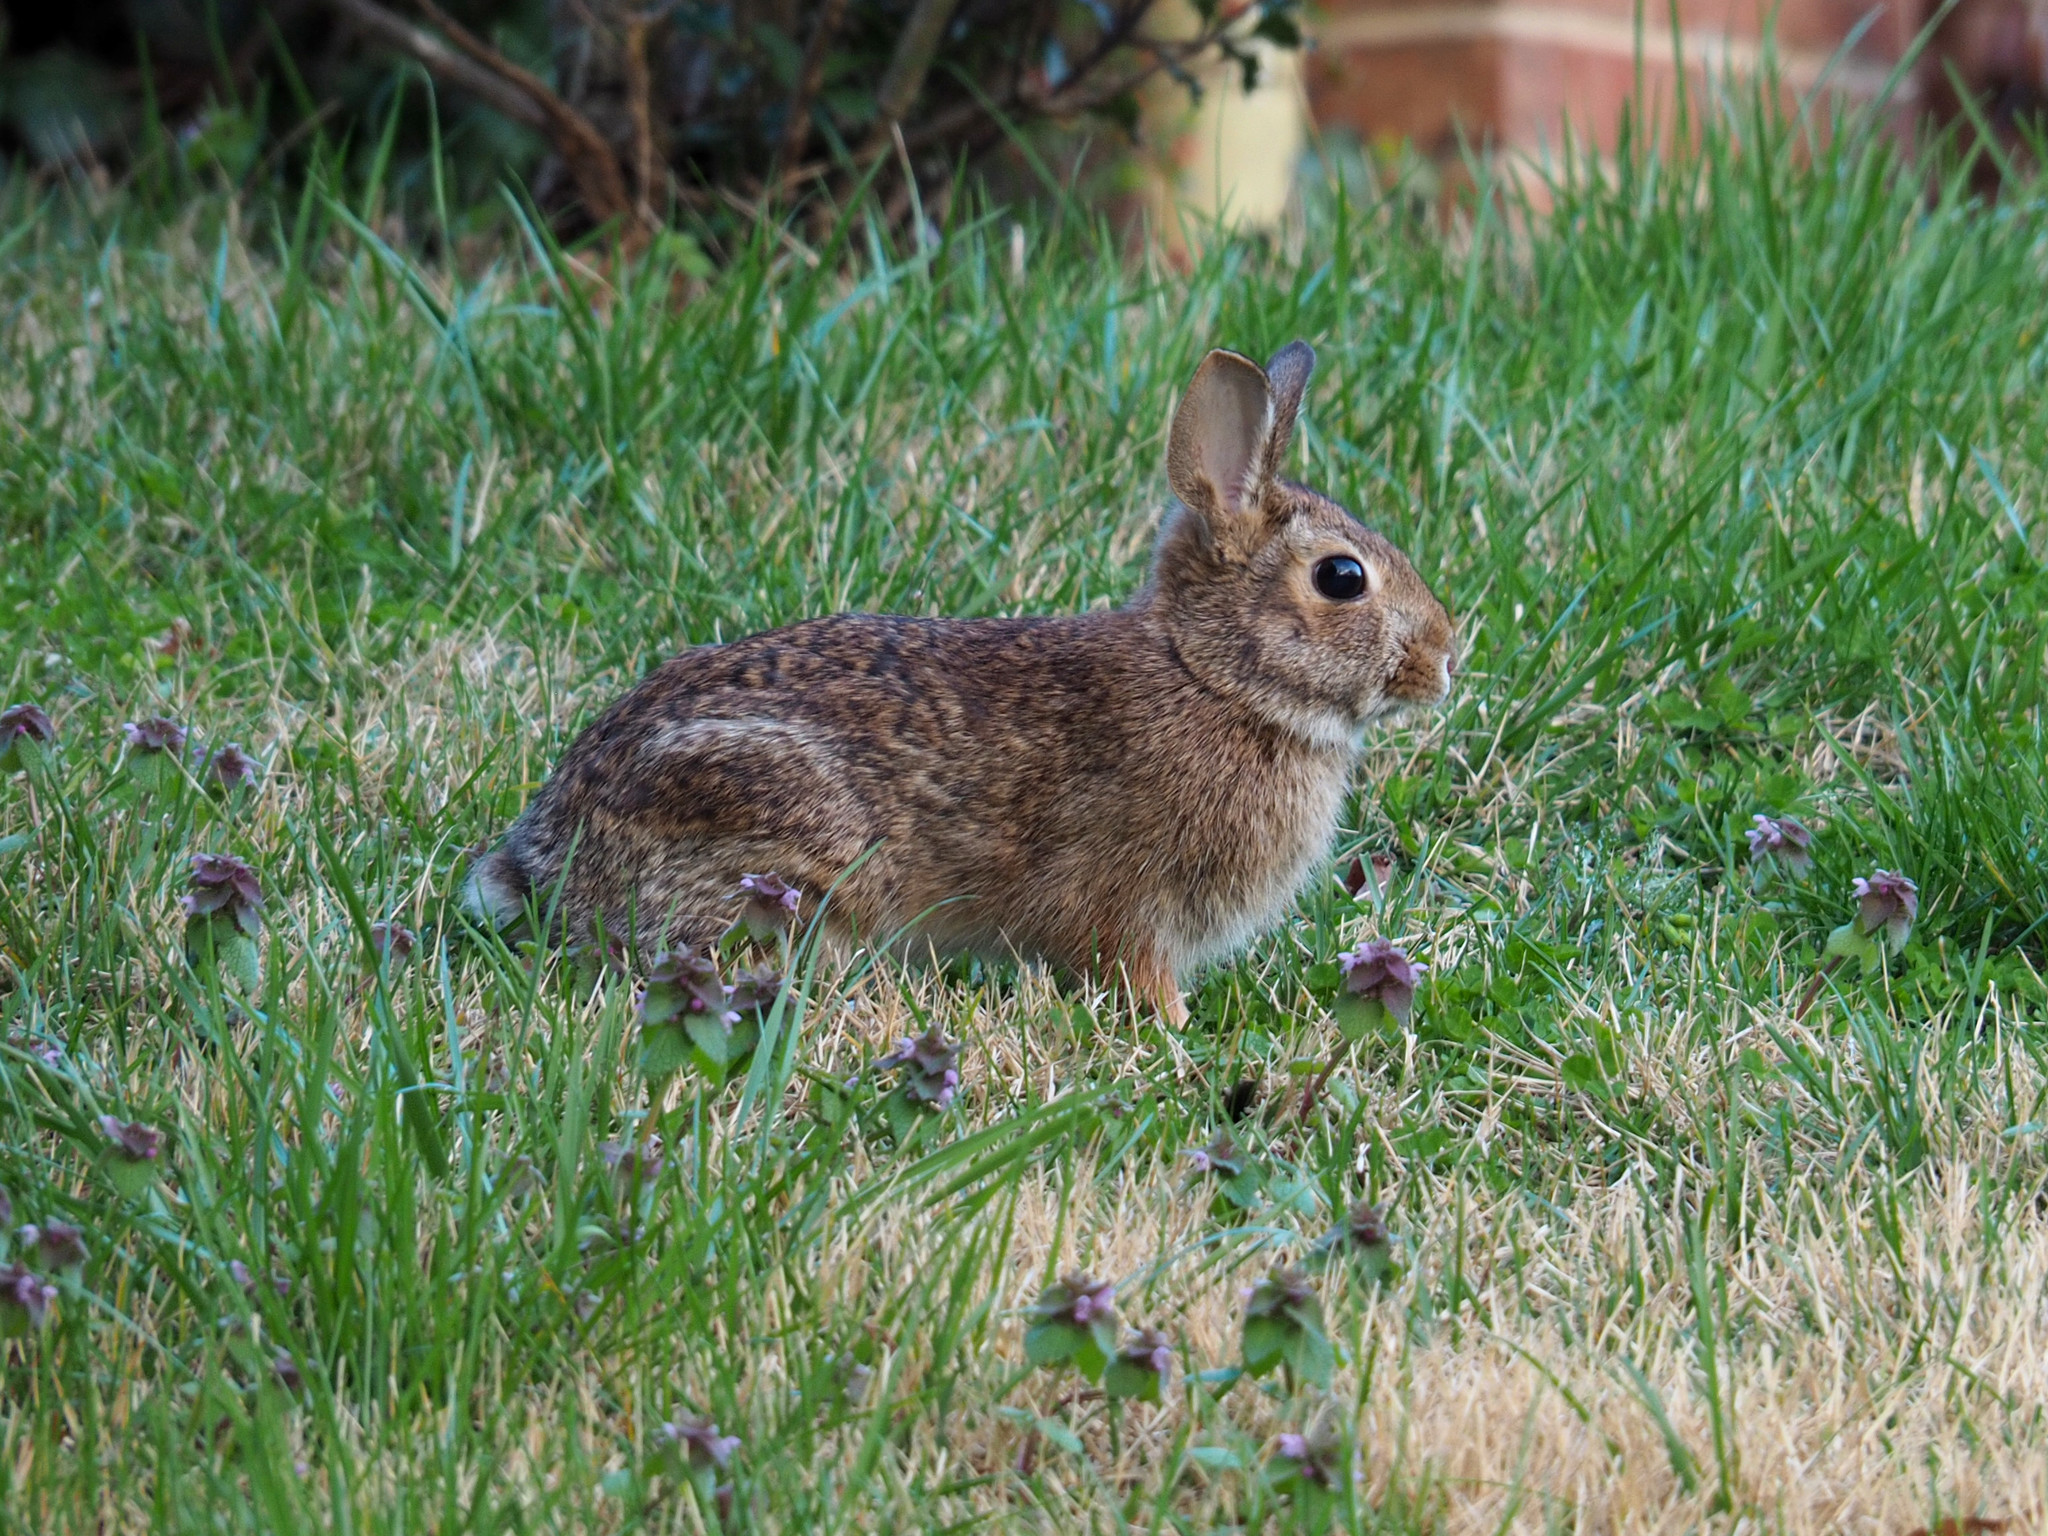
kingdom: Animalia
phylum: Chordata
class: Mammalia
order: Lagomorpha
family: Leporidae
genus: Sylvilagus
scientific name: Sylvilagus floridanus
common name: Eastern cottontail
